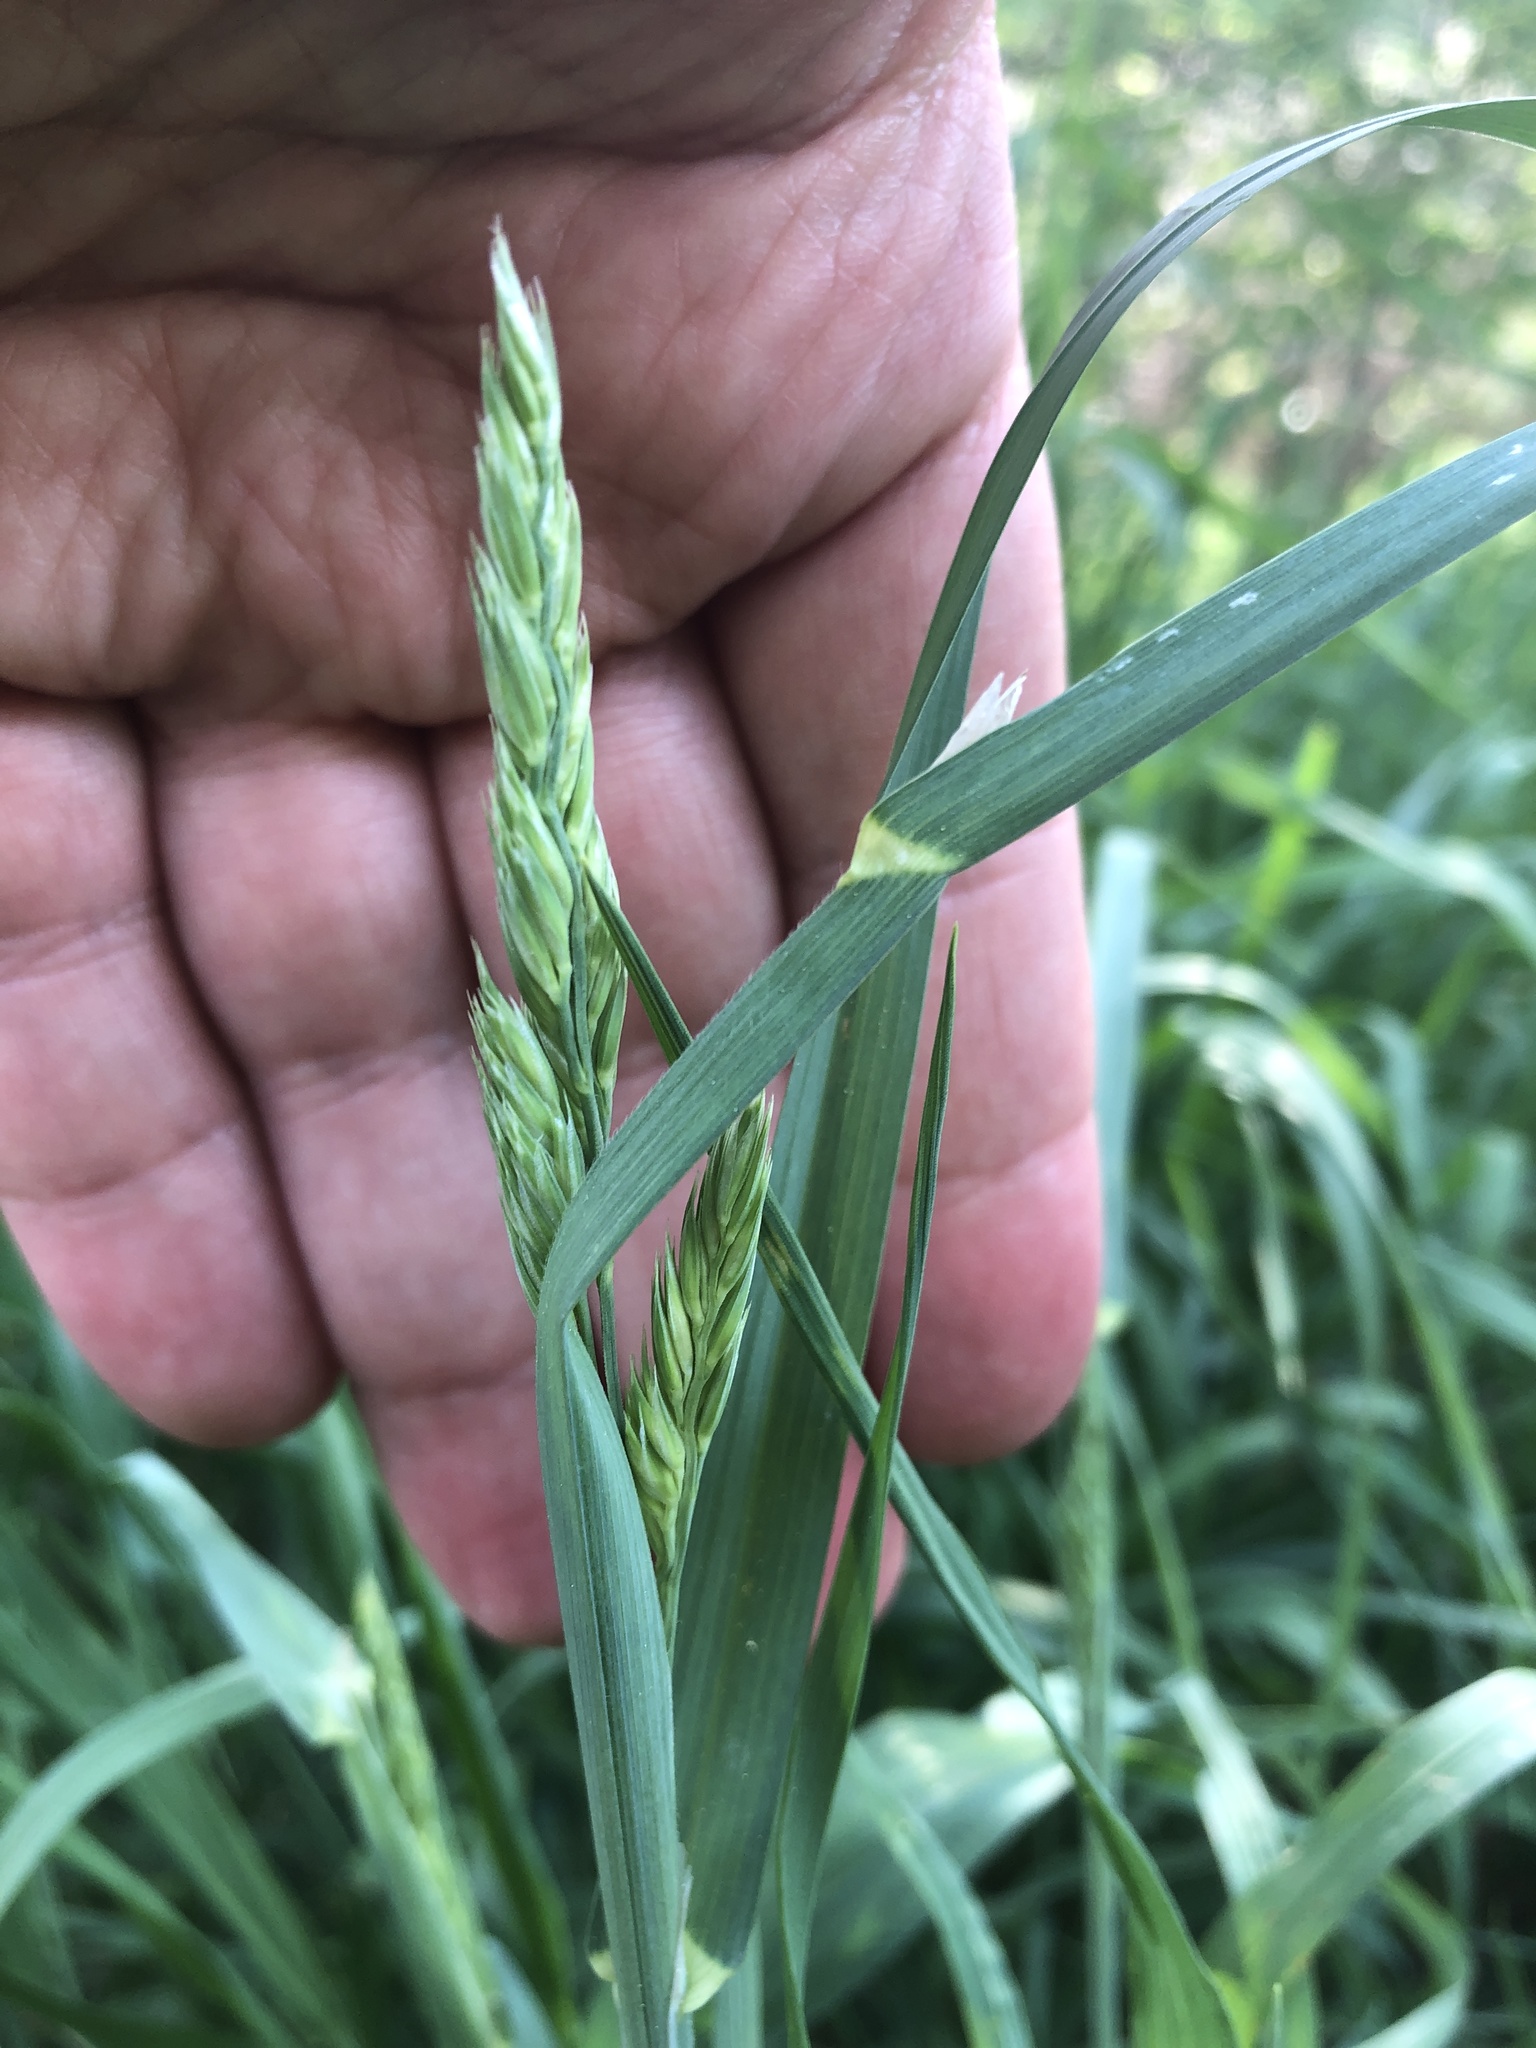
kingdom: Plantae
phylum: Tracheophyta
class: Liliopsida
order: Poales
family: Poaceae
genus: Dactylis
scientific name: Dactylis glomerata
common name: Orchardgrass
